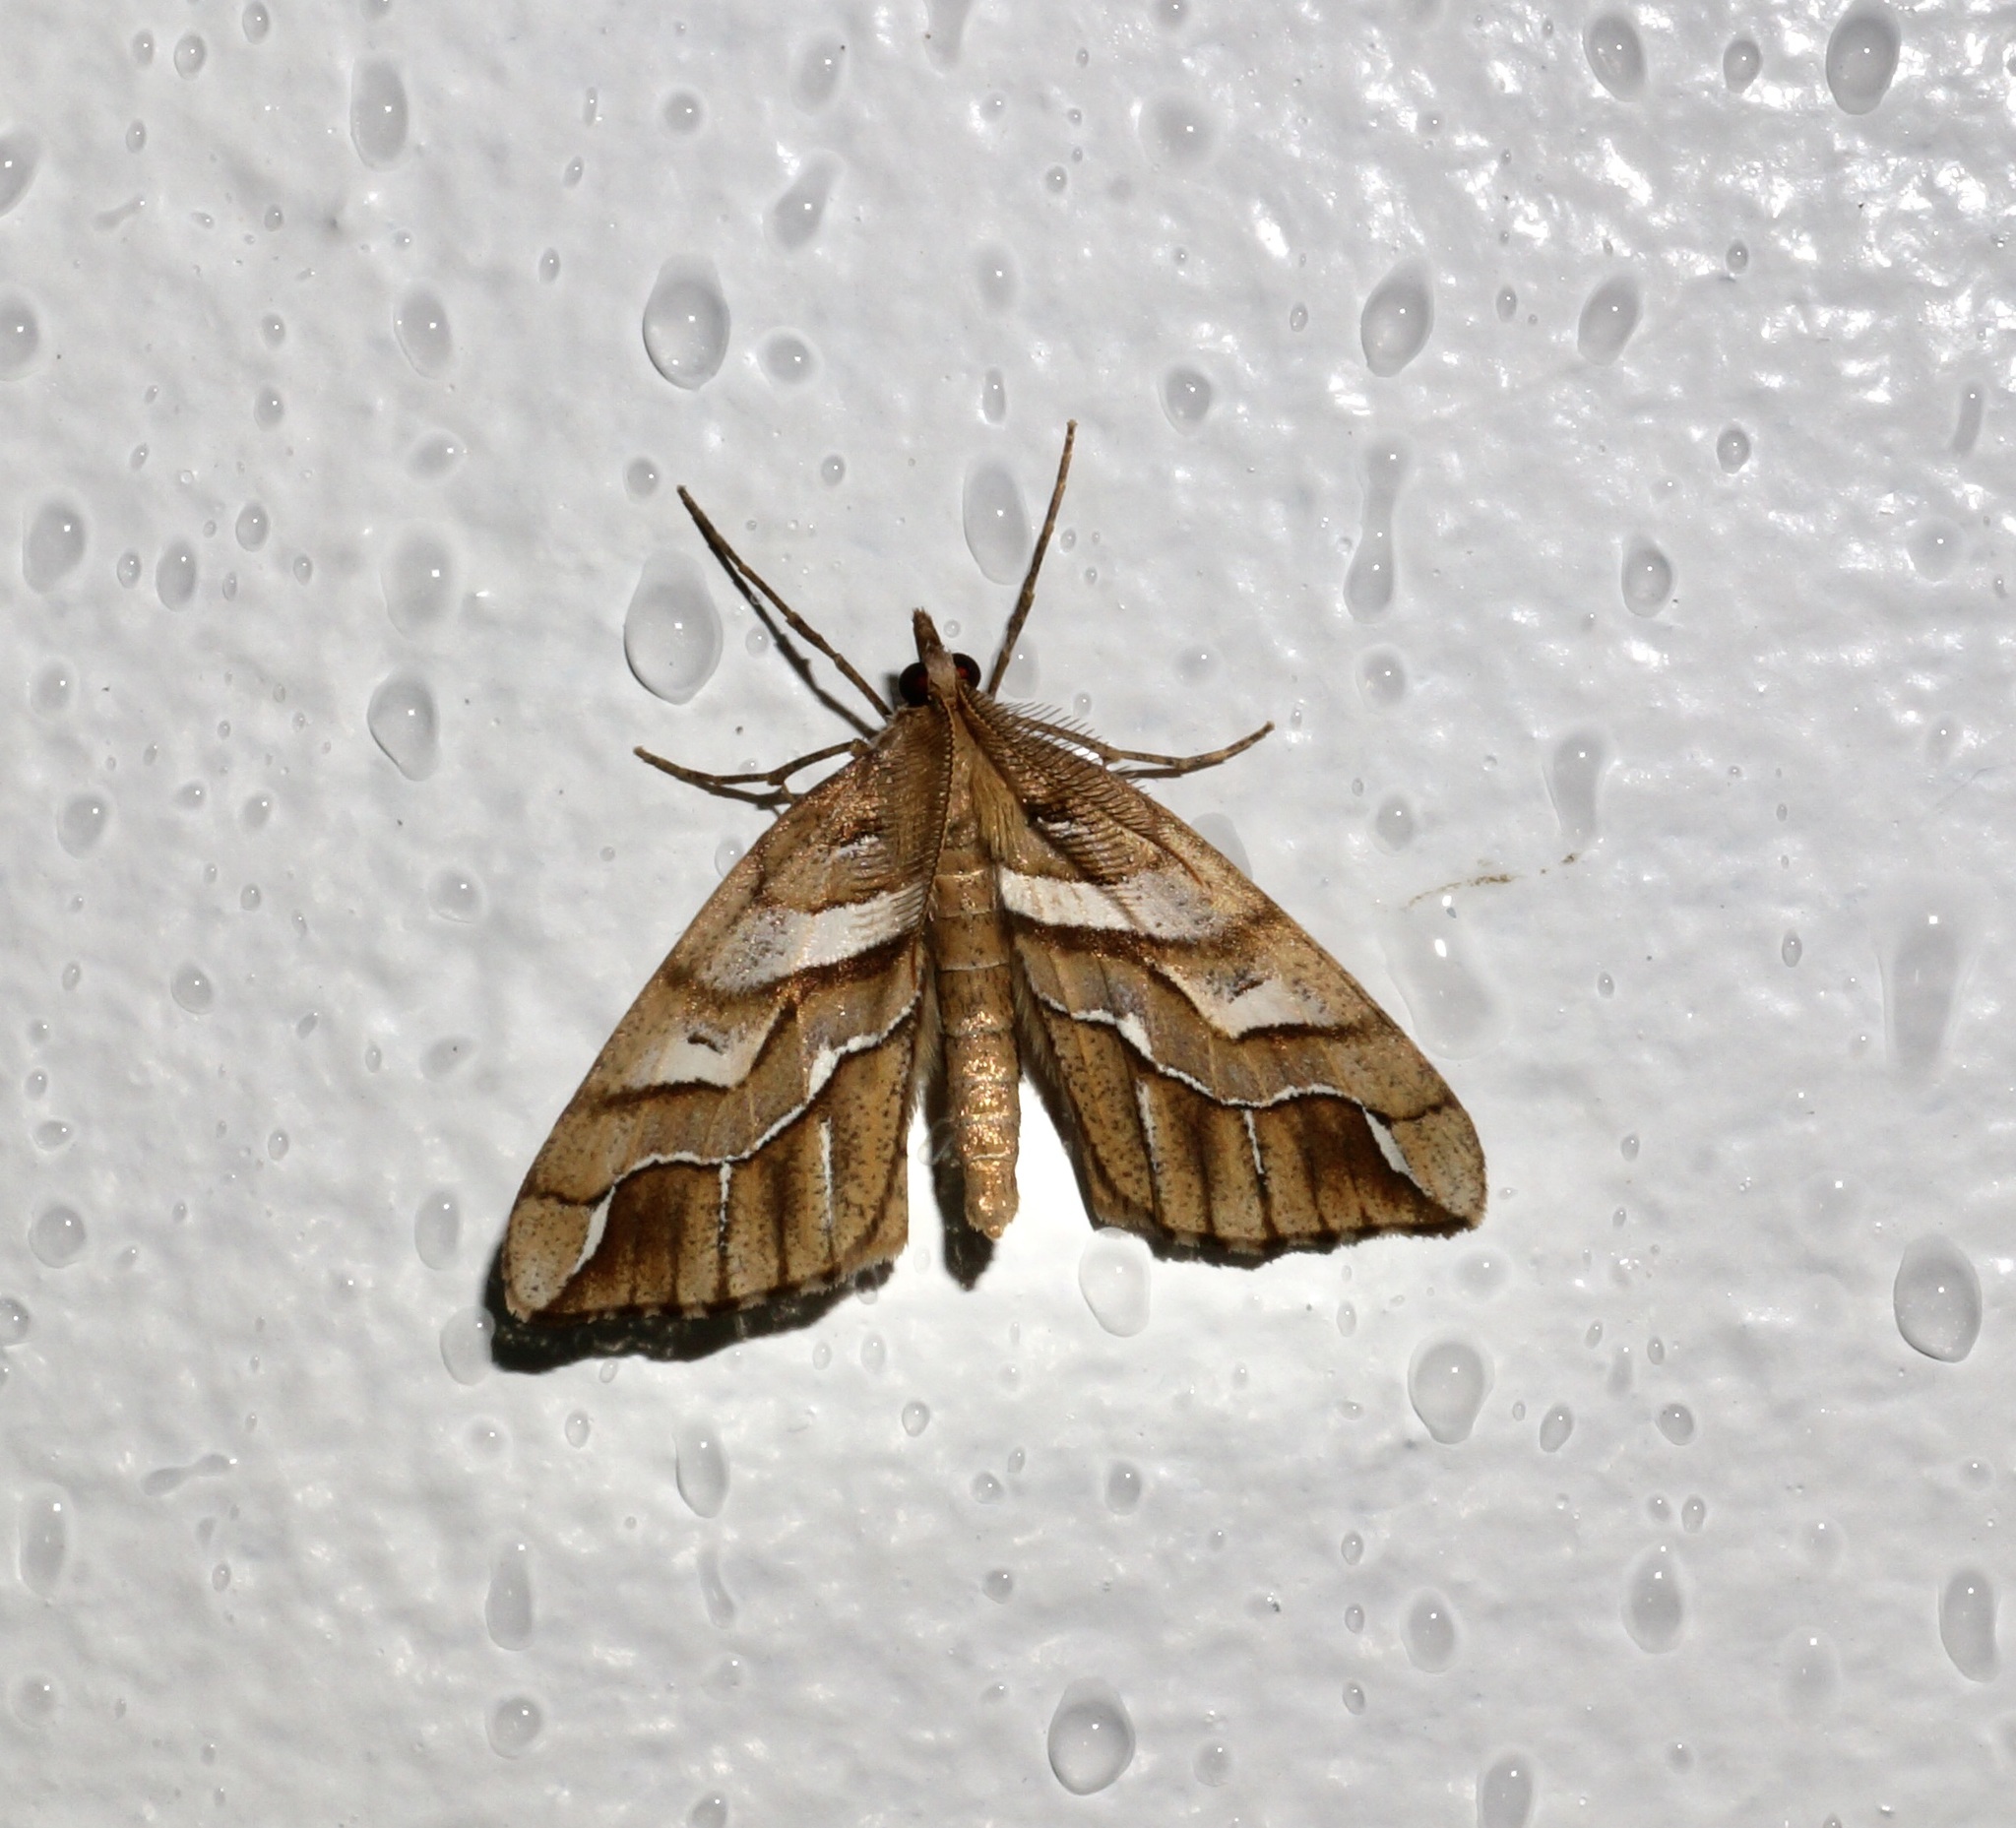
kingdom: Animalia
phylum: Arthropoda
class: Insecta
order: Lepidoptera
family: Geometridae
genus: Chalastra
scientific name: Chalastra aristarcha
